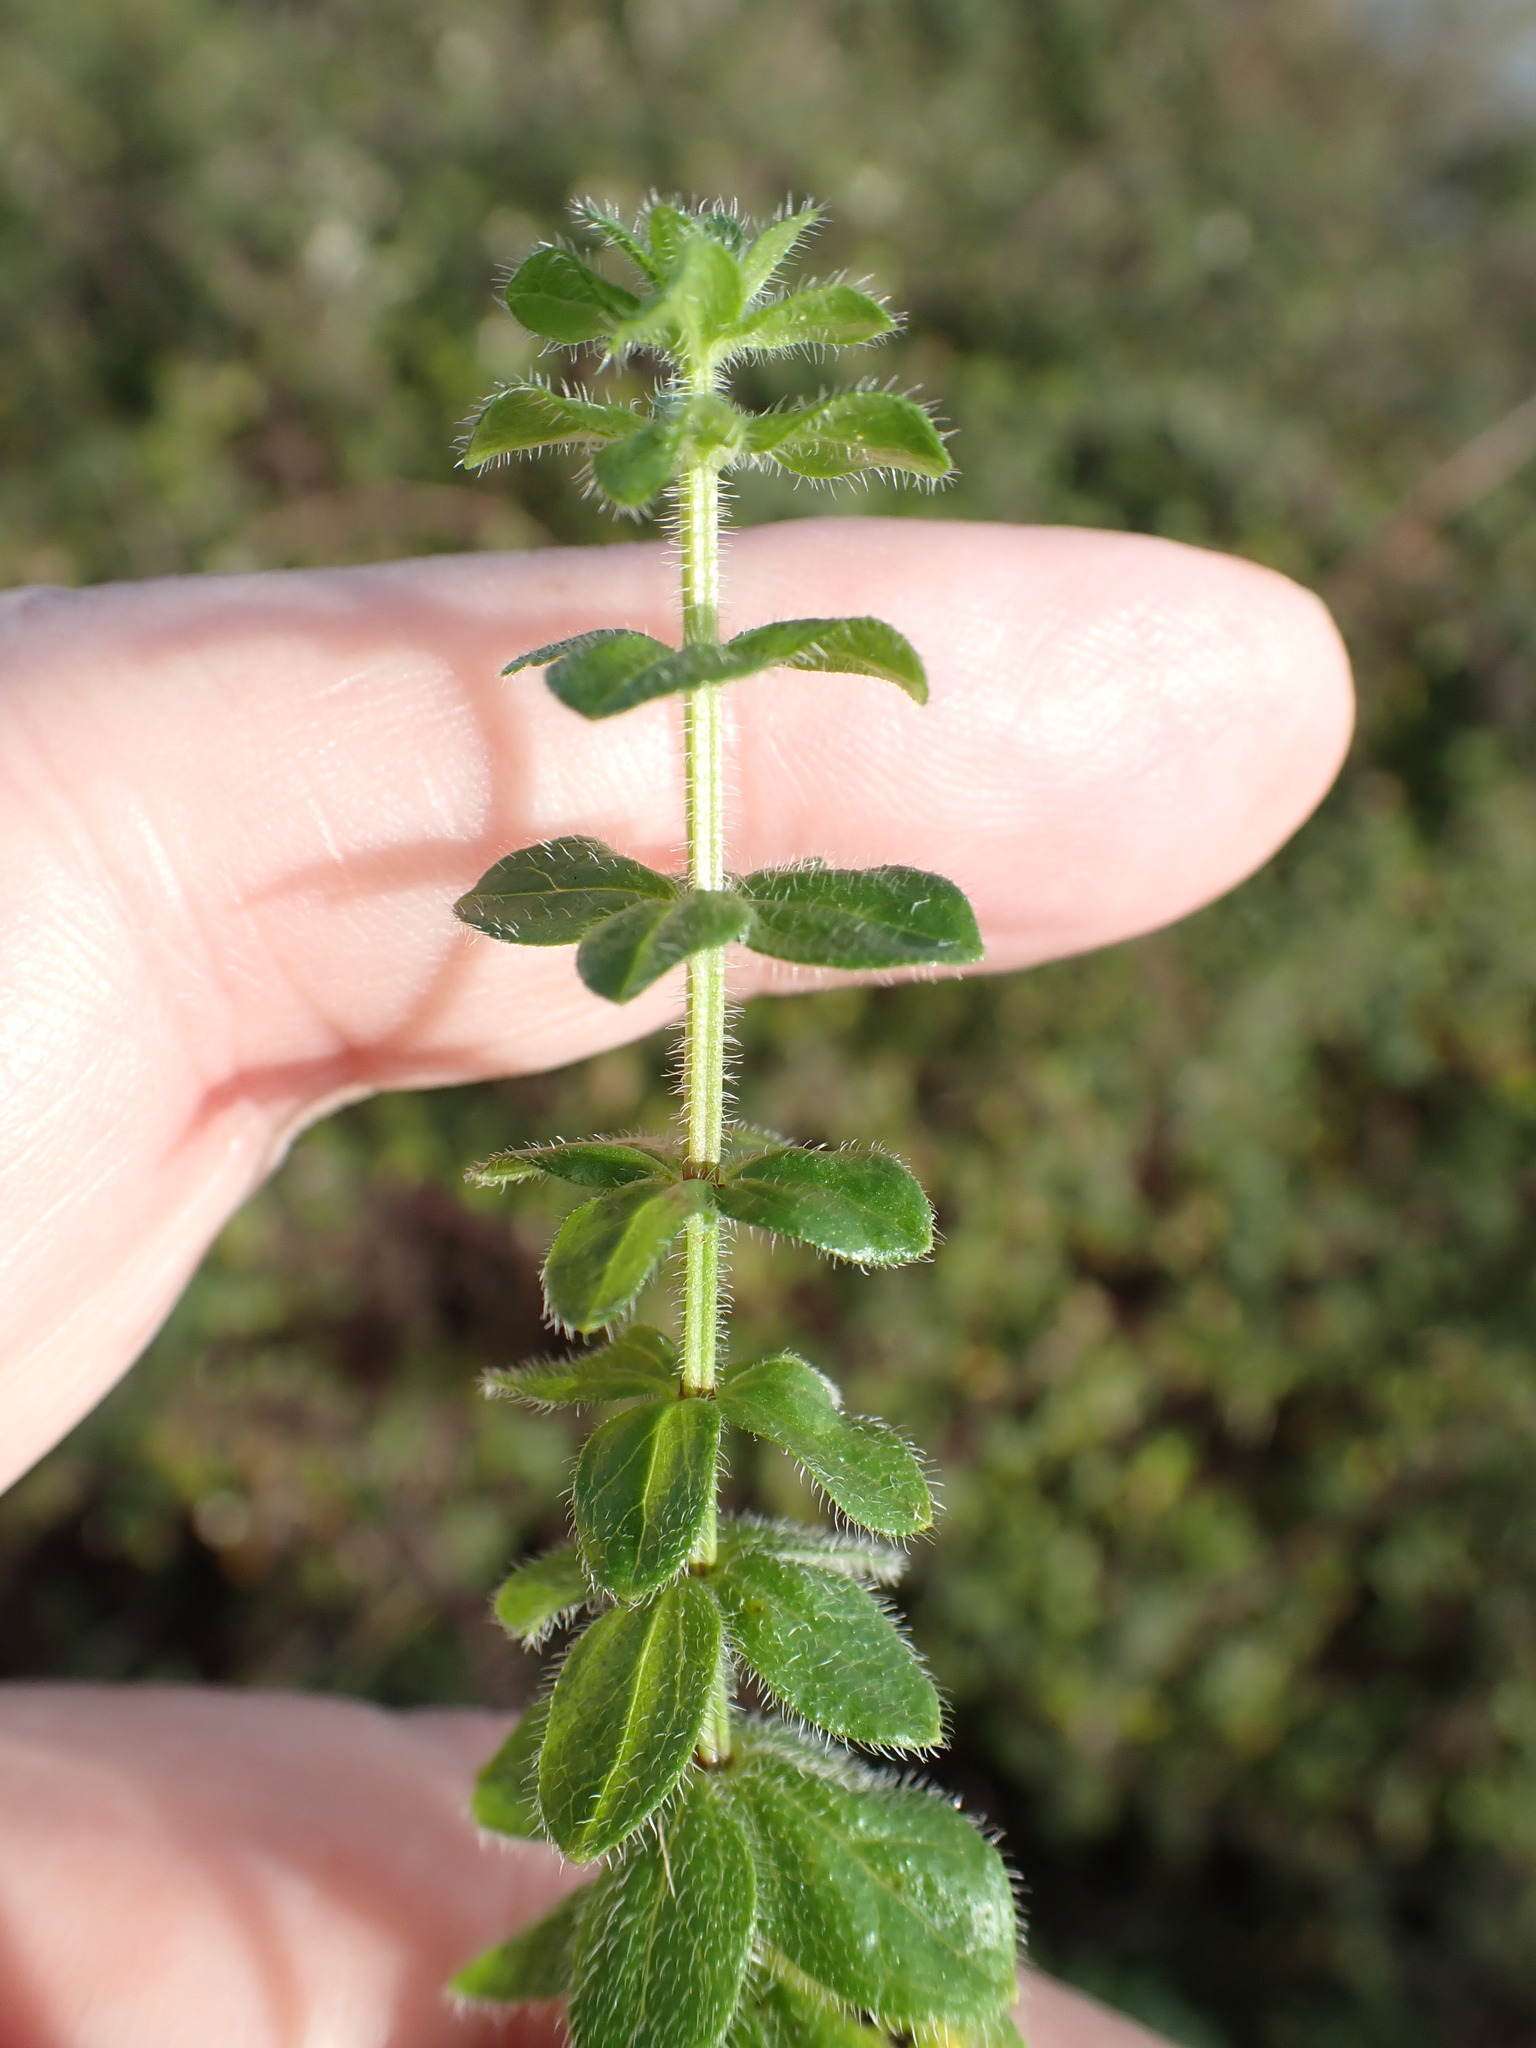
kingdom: Plantae
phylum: Tracheophyta
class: Magnoliopsida
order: Gentianales
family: Rubiaceae
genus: Cruciata
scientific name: Cruciata laevipes
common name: Crosswort
